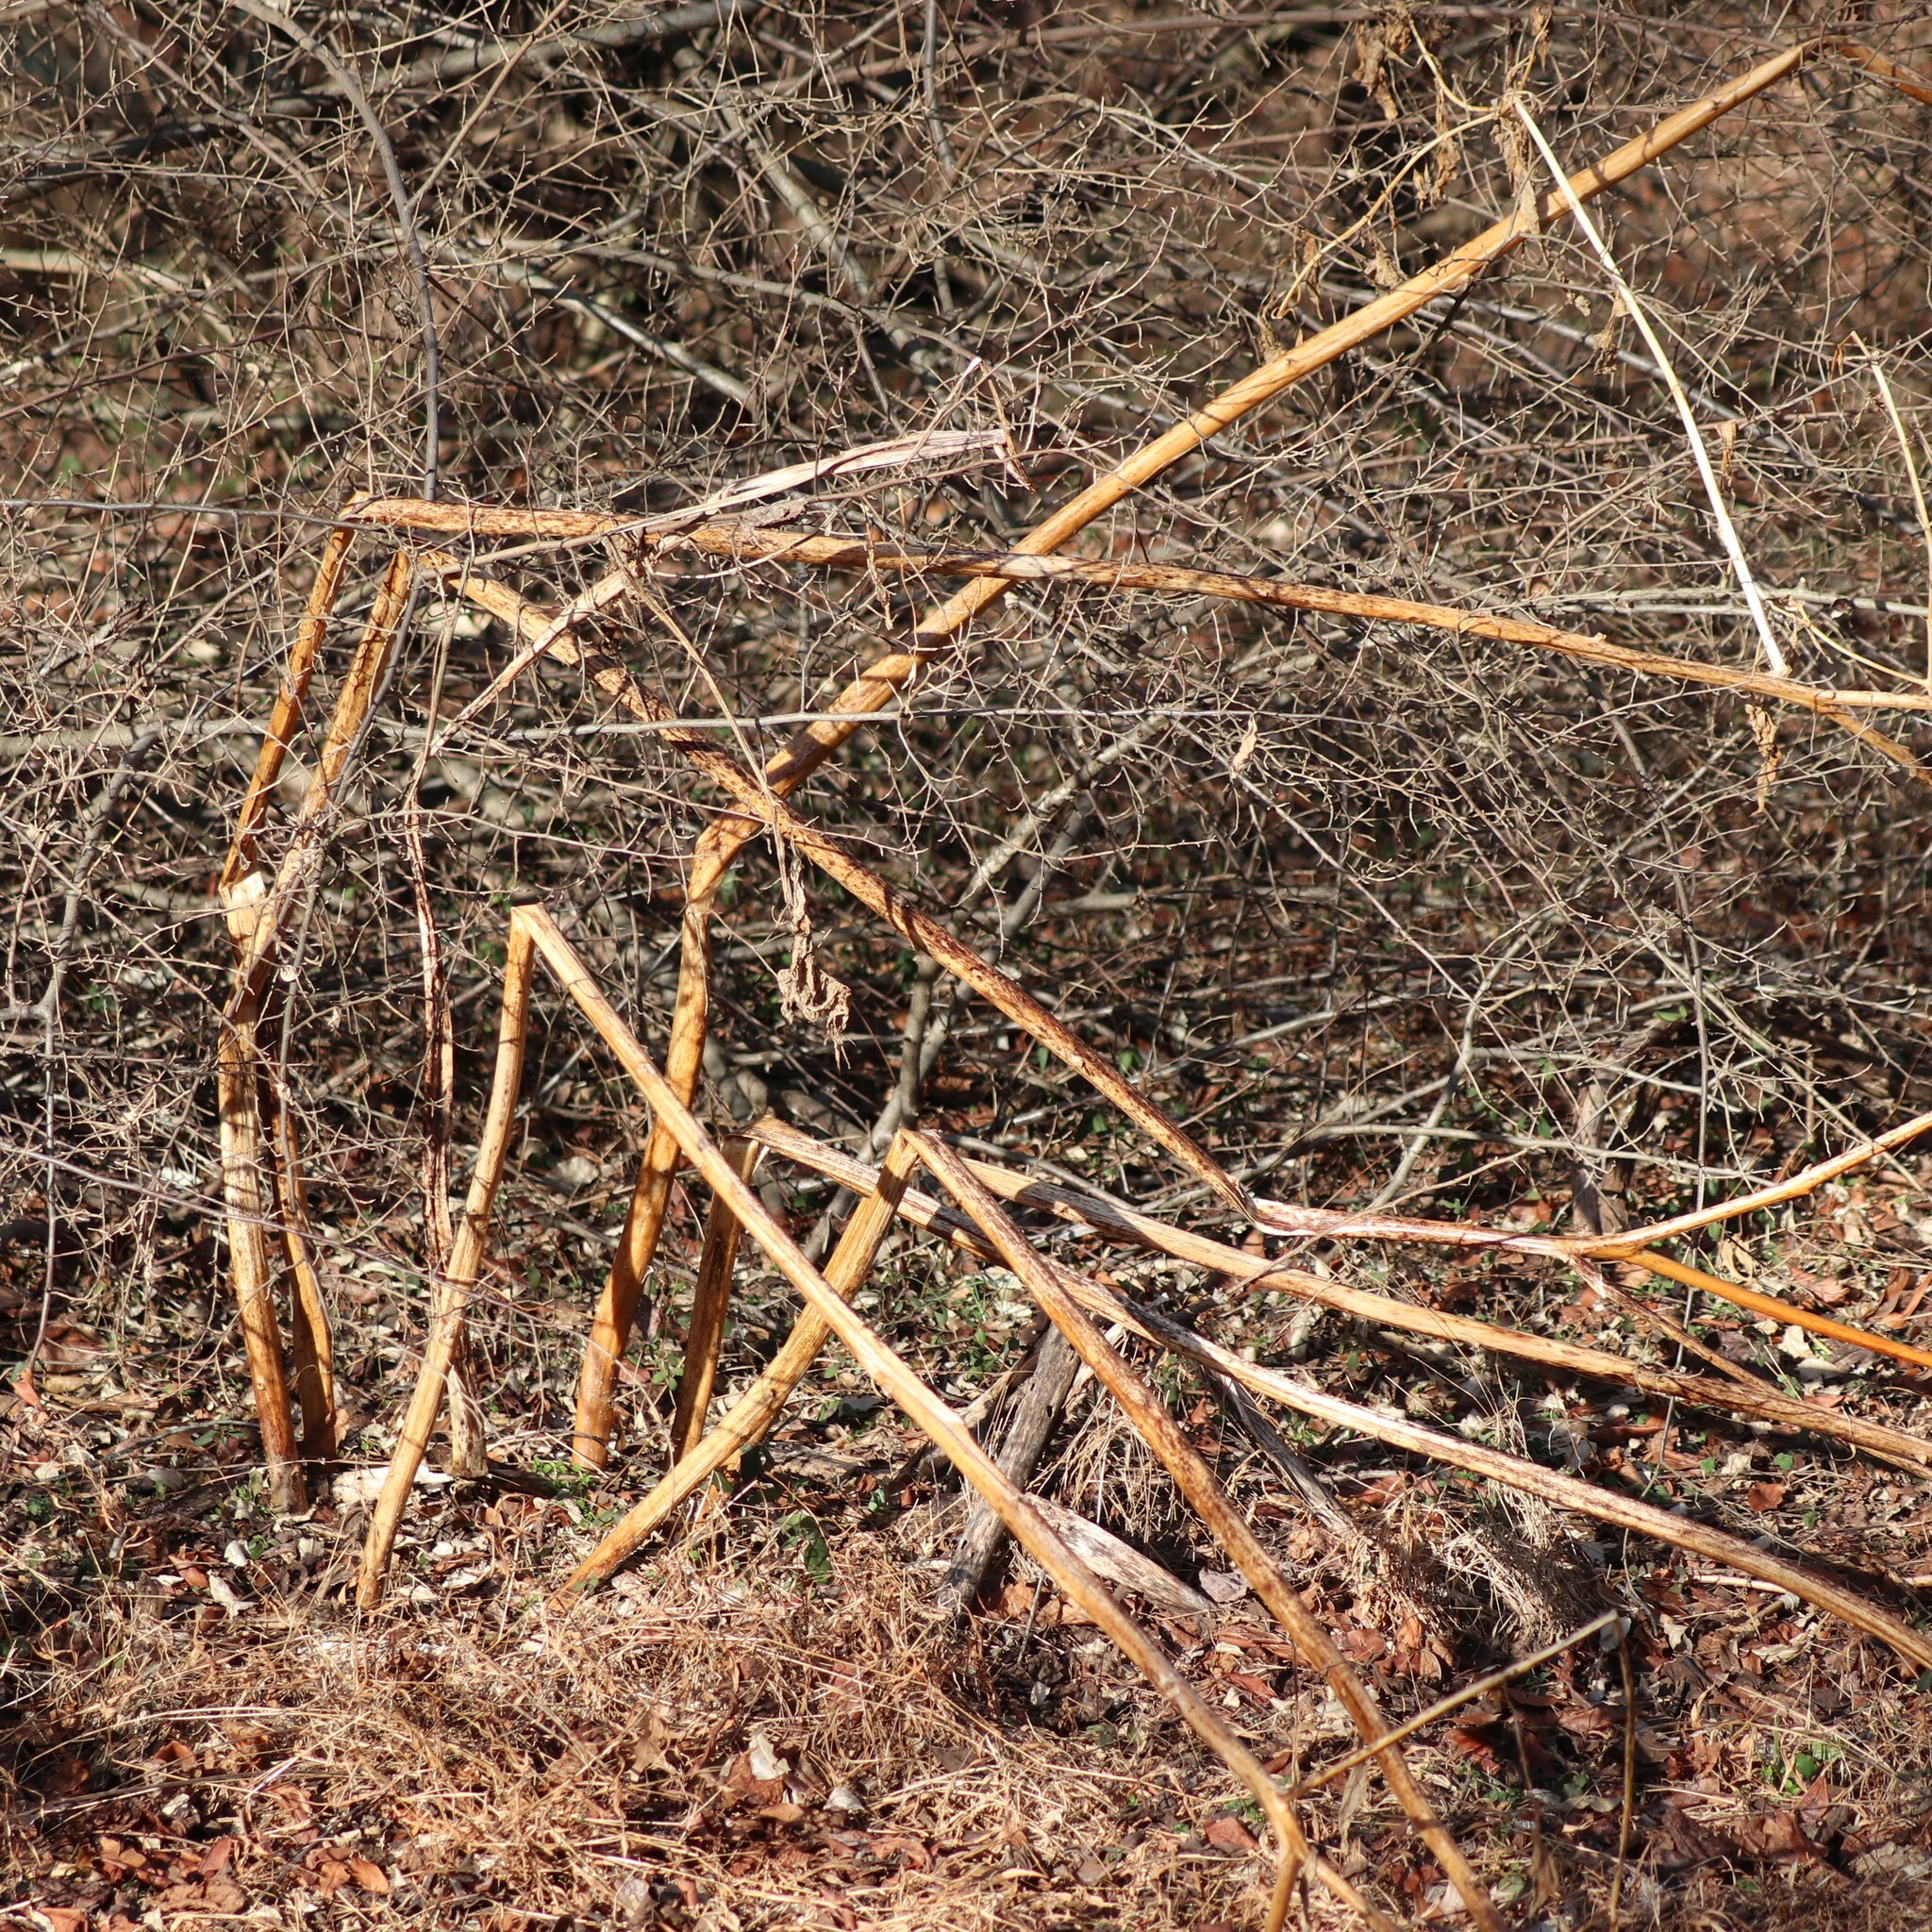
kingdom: Plantae
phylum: Tracheophyta
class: Magnoliopsida
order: Caryophyllales
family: Phytolaccaceae
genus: Phytolacca
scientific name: Phytolacca americana
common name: American pokeweed
